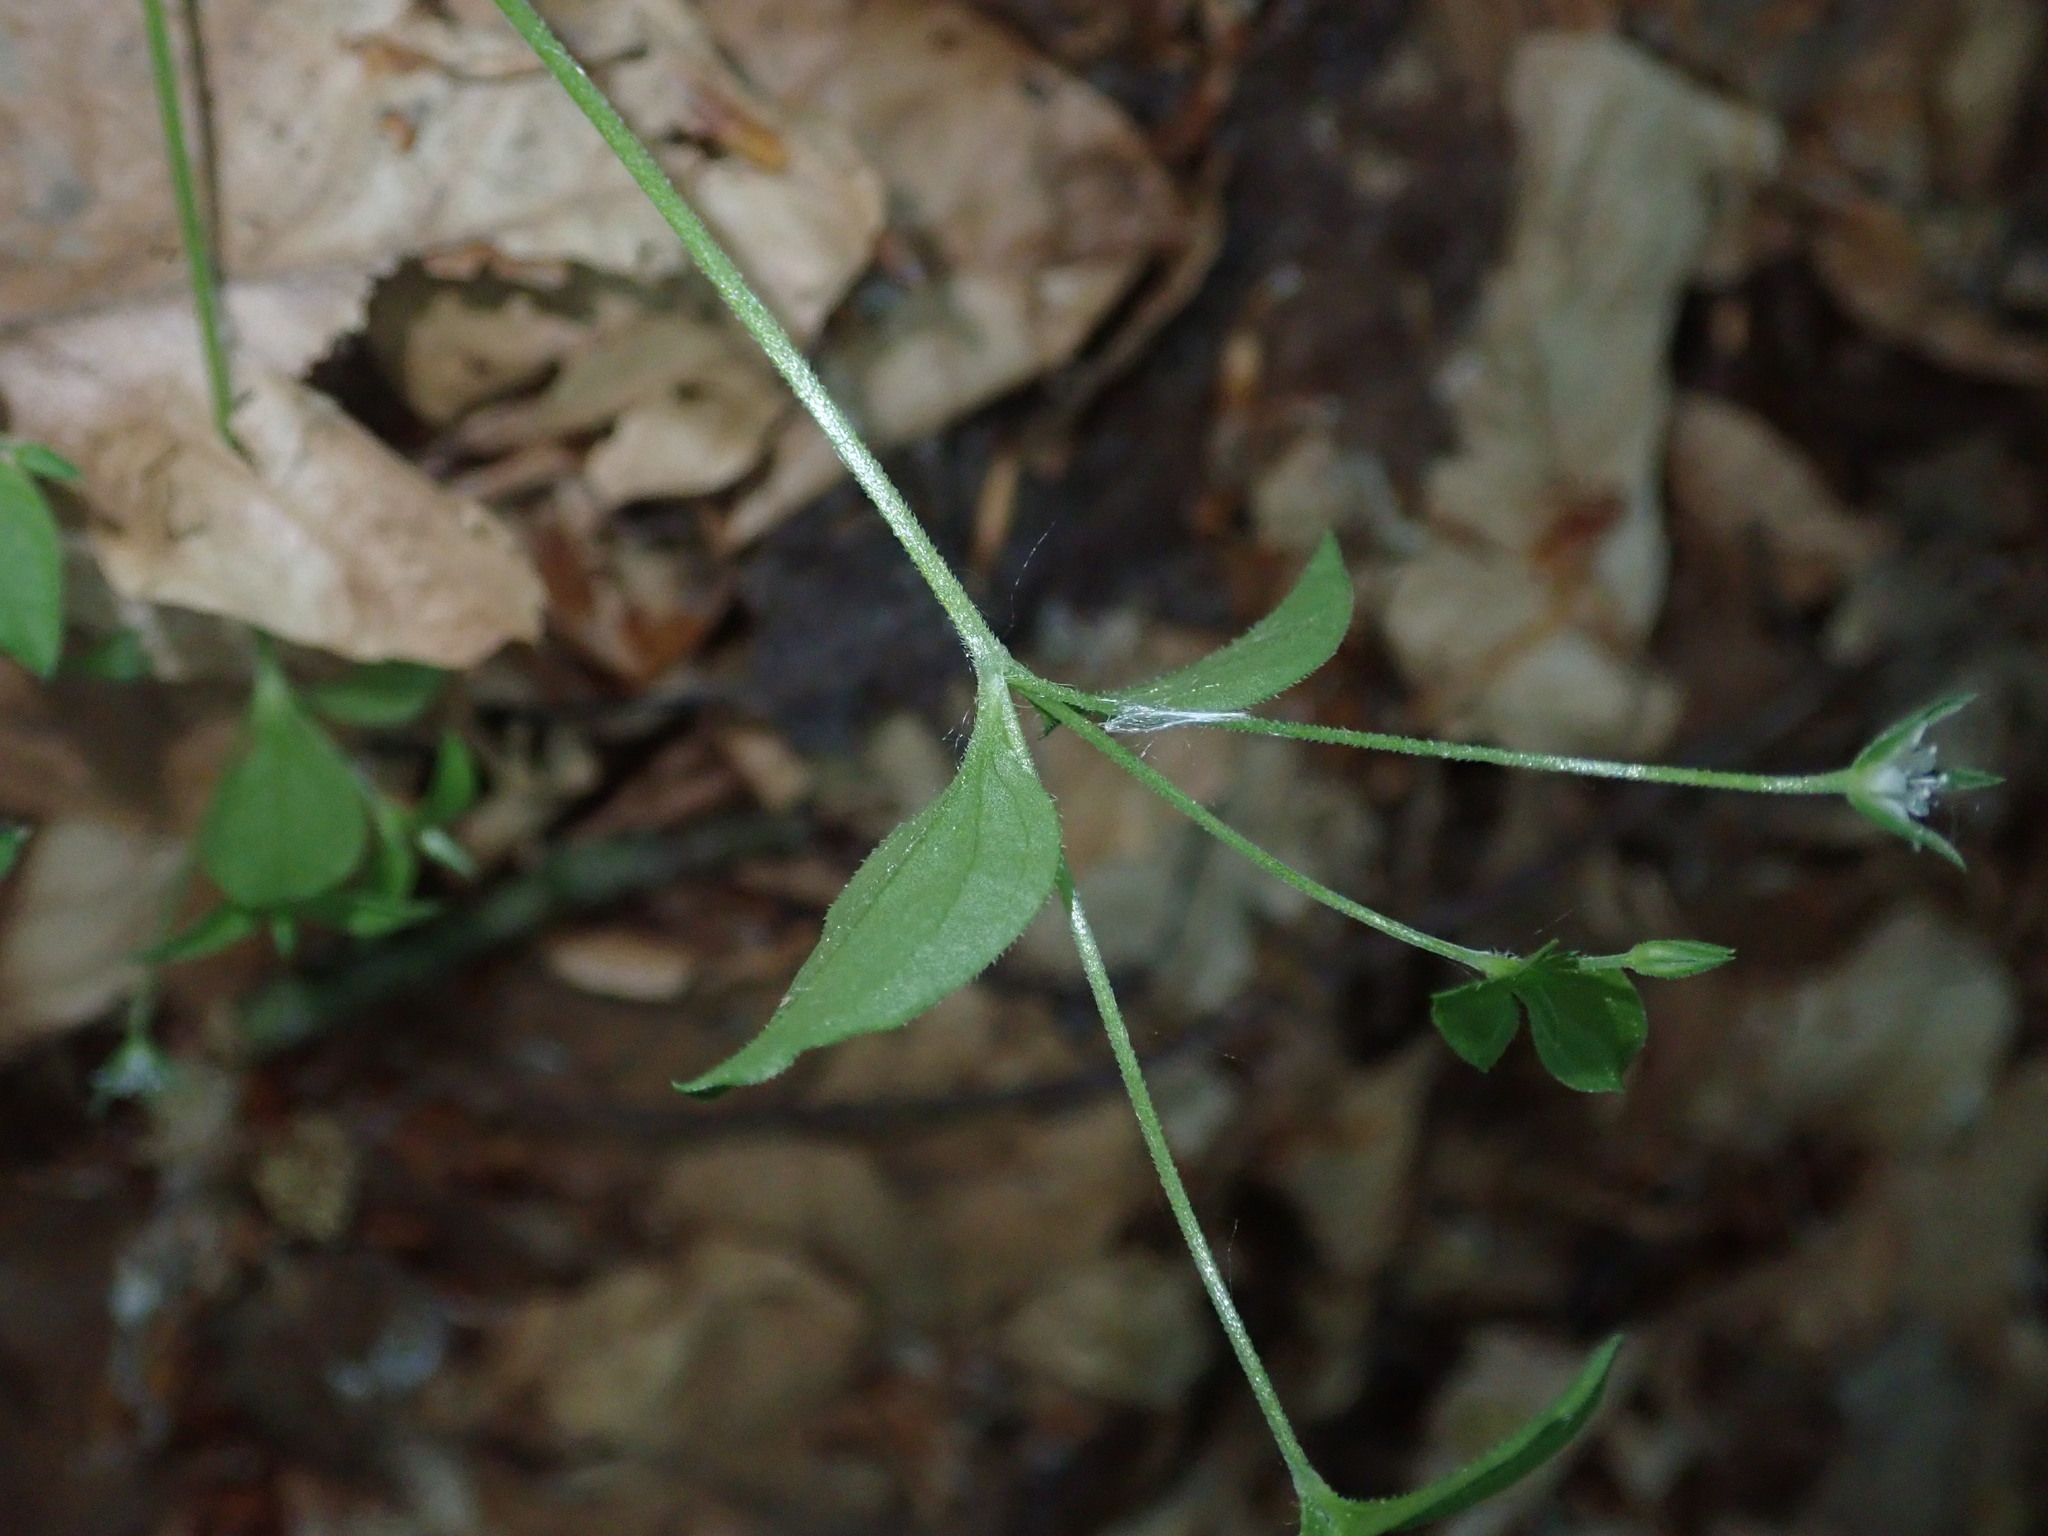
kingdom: Plantae
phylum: Tracheophyta
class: Magnoliopsida
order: Caryophyllales
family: Caryophyllaceae
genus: Moehringia
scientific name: Moehringia trinervia
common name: Three-nerved sandwort
